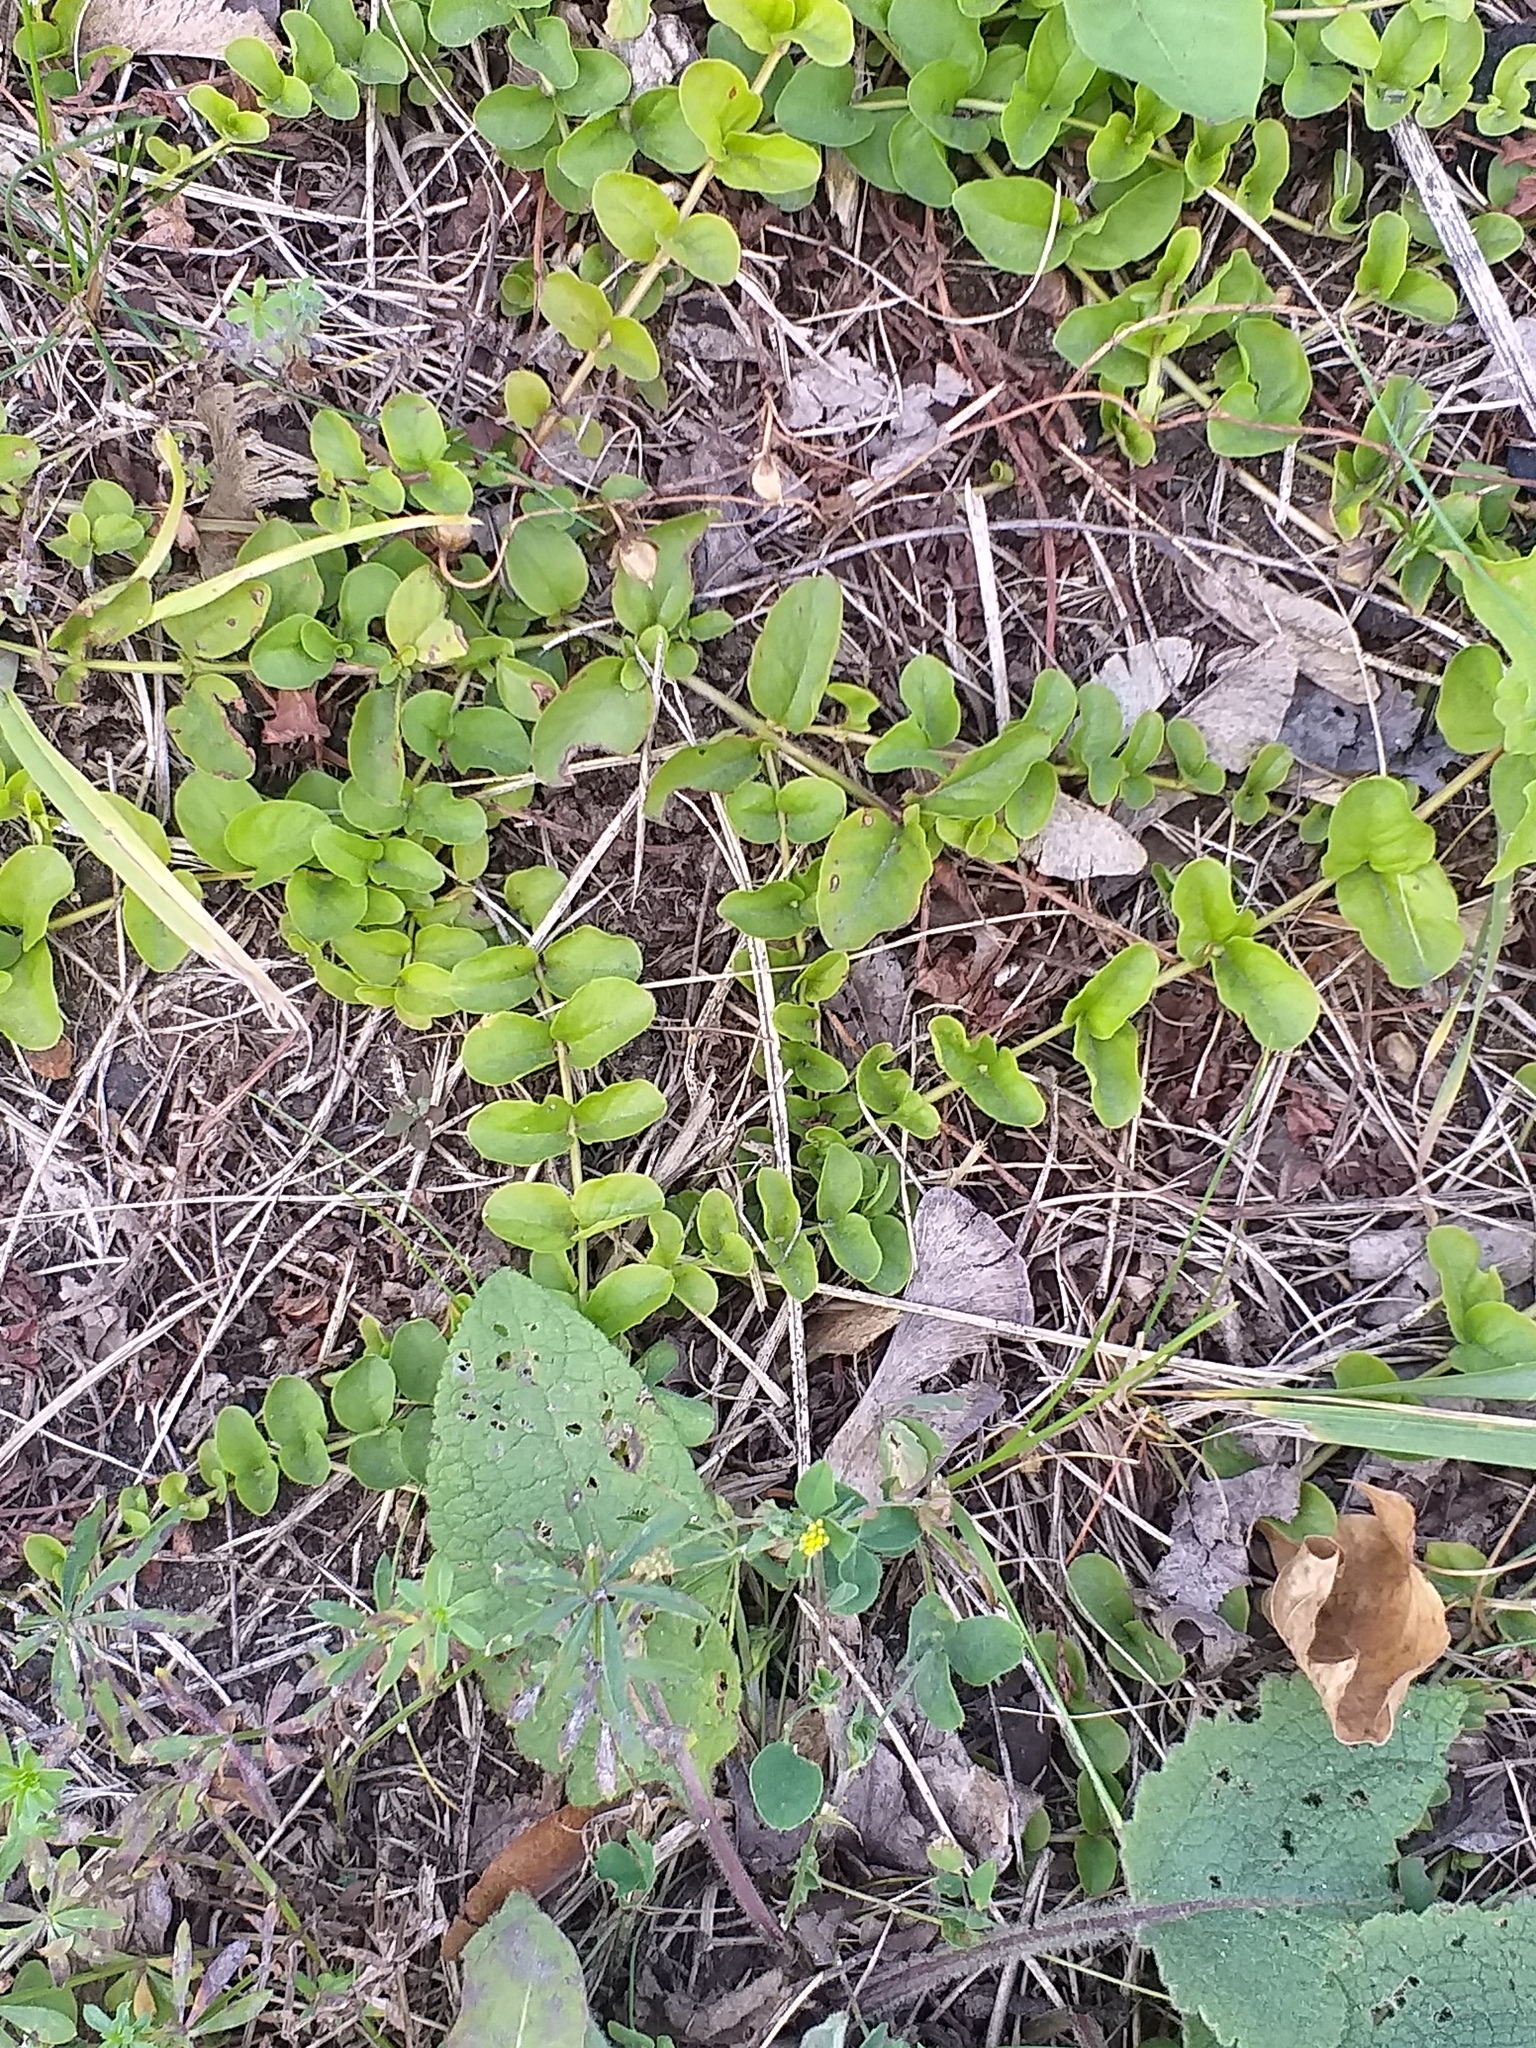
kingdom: Plantae
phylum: Tracheophyta
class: Magnoliopsida
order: Ericales
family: Primulaceae
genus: Lysimachia
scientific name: Lysimachia nummularia
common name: Moneywort
